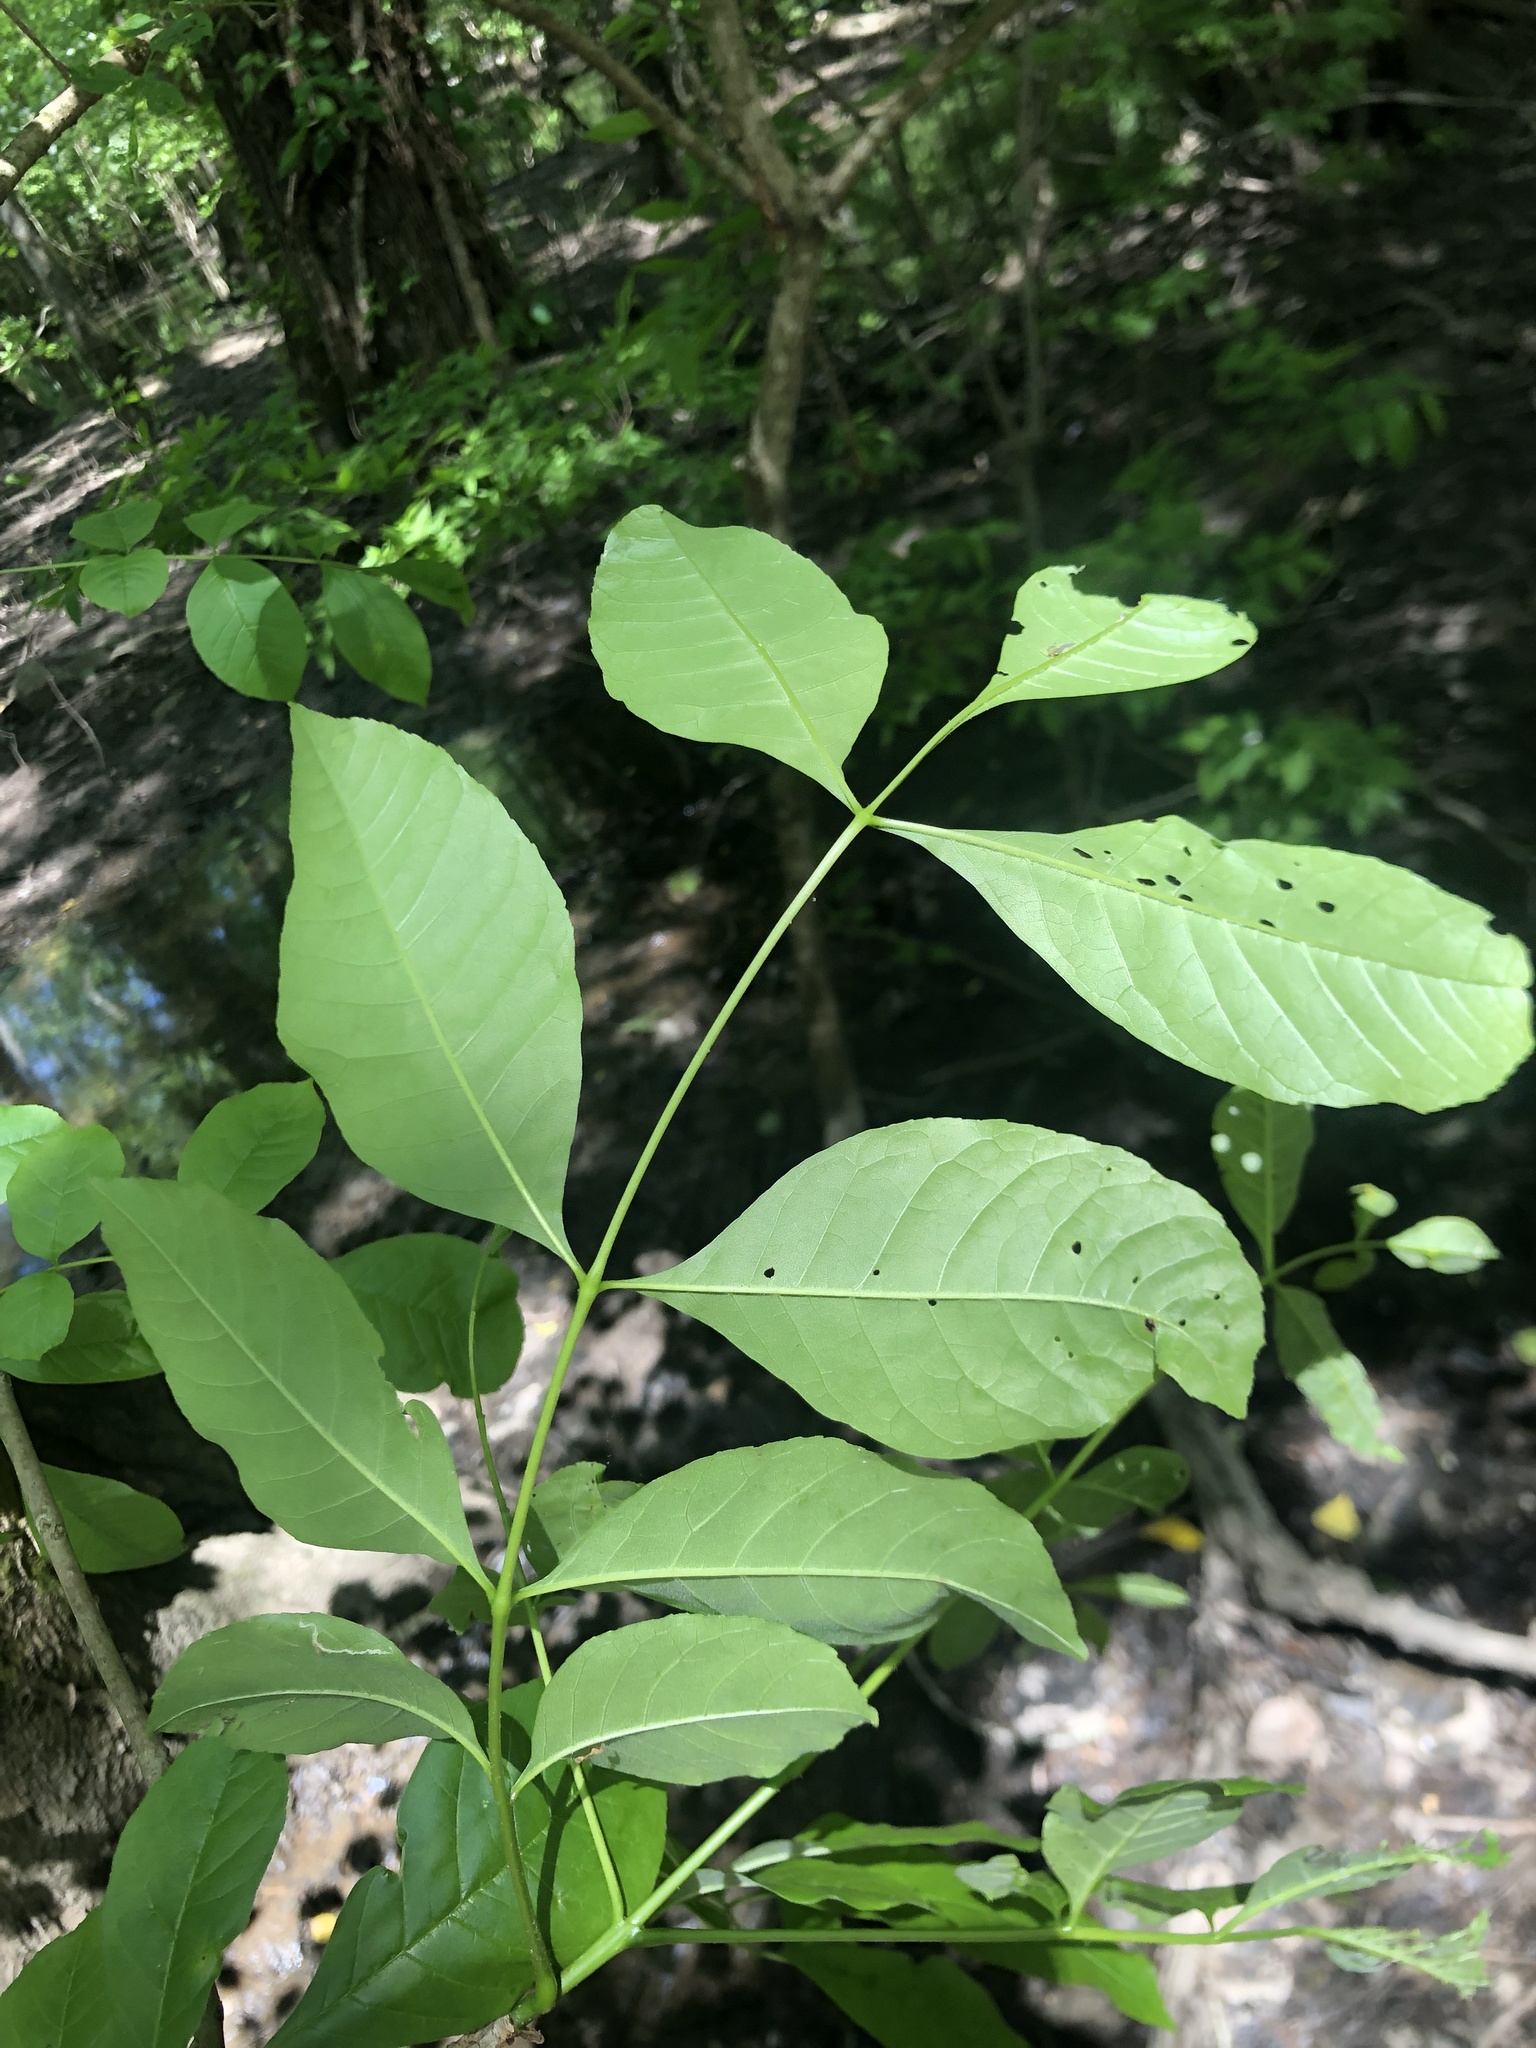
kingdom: Plantae
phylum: Tracheophyta
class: Magnoliopsida
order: Lamiales
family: Oleaceae
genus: Fraxinus
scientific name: Fraxinus pennsylvanica
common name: Green ash
